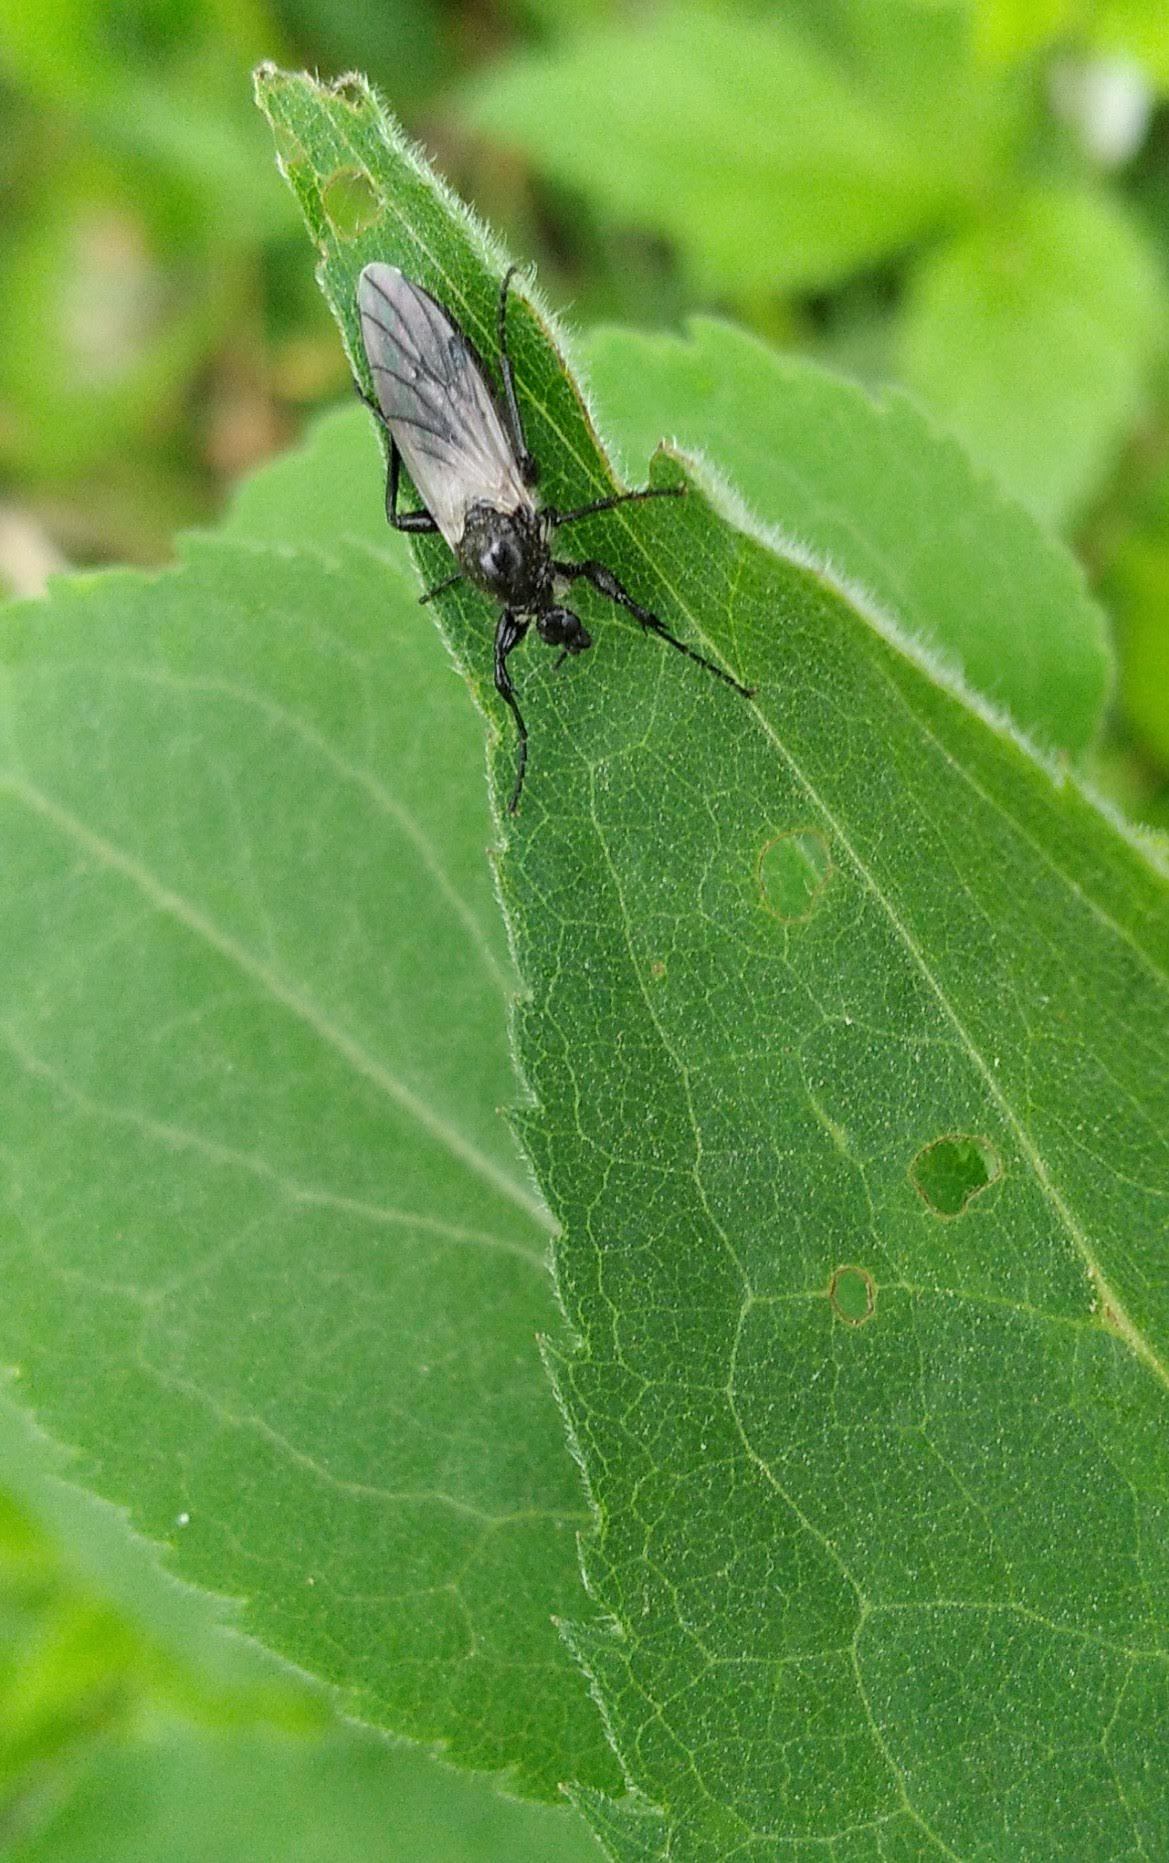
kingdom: Animalia
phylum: Arthropoda
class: Insecta
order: Diptera
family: Bibionidae
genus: Bibio
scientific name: Bibio albipennis
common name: White-winged march fly
